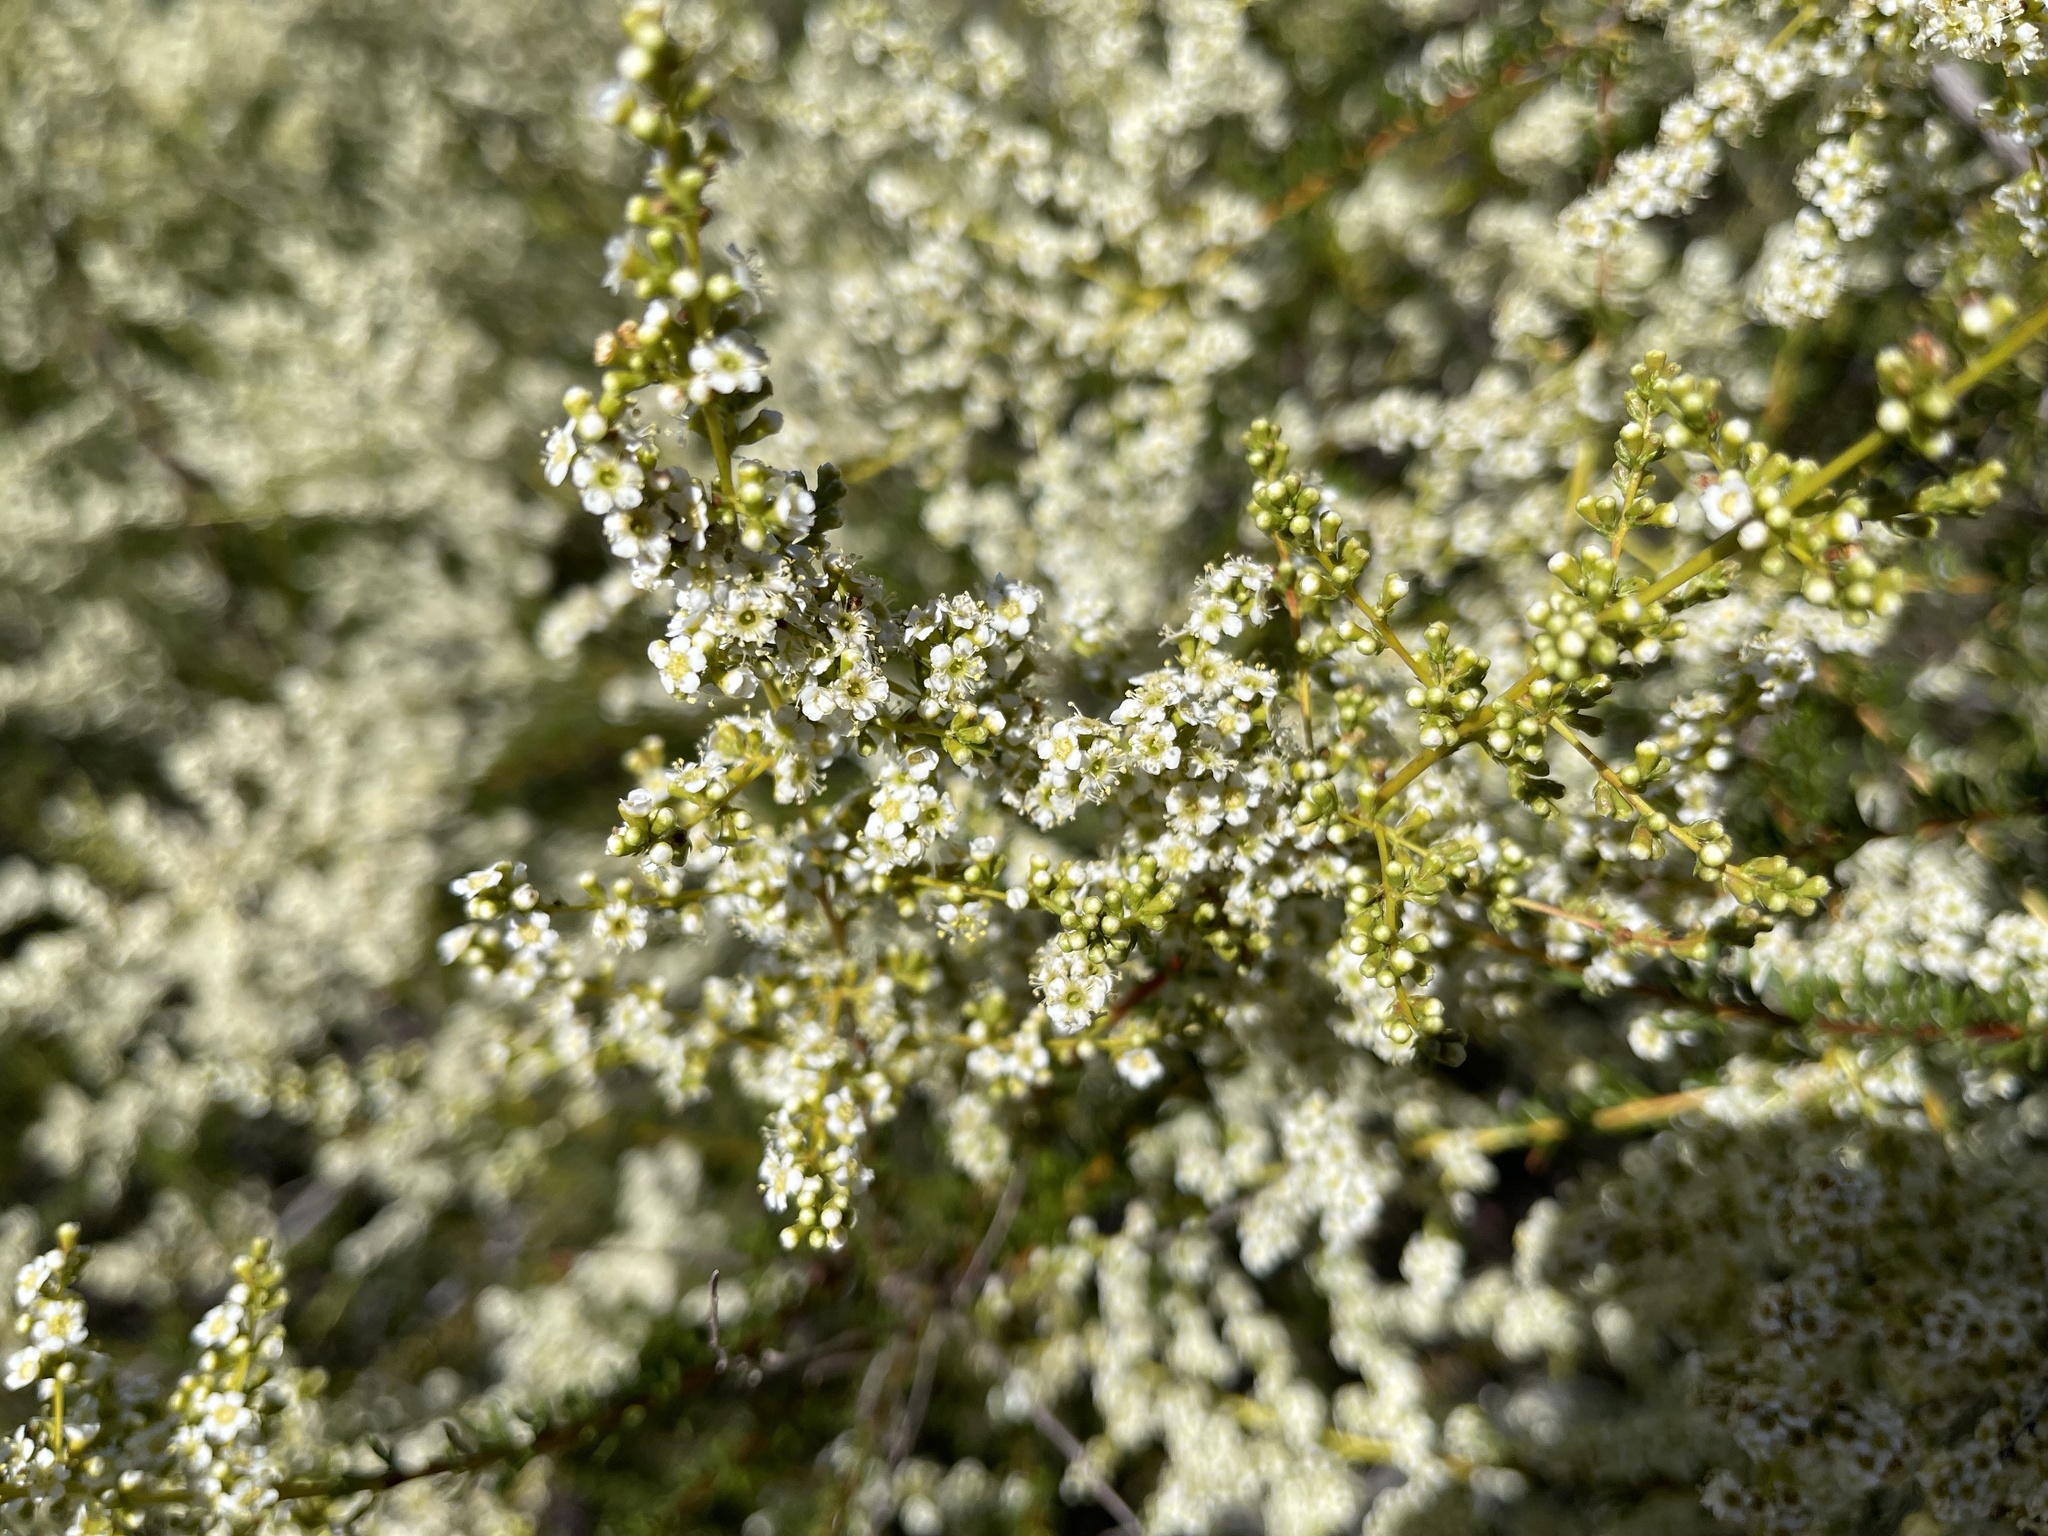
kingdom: Plantae
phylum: Tracheophyta
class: Magnoliopsida
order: Rosales
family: Rosaceae
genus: Adenostoma
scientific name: Adenostoma fasciculatum
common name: Chamise
